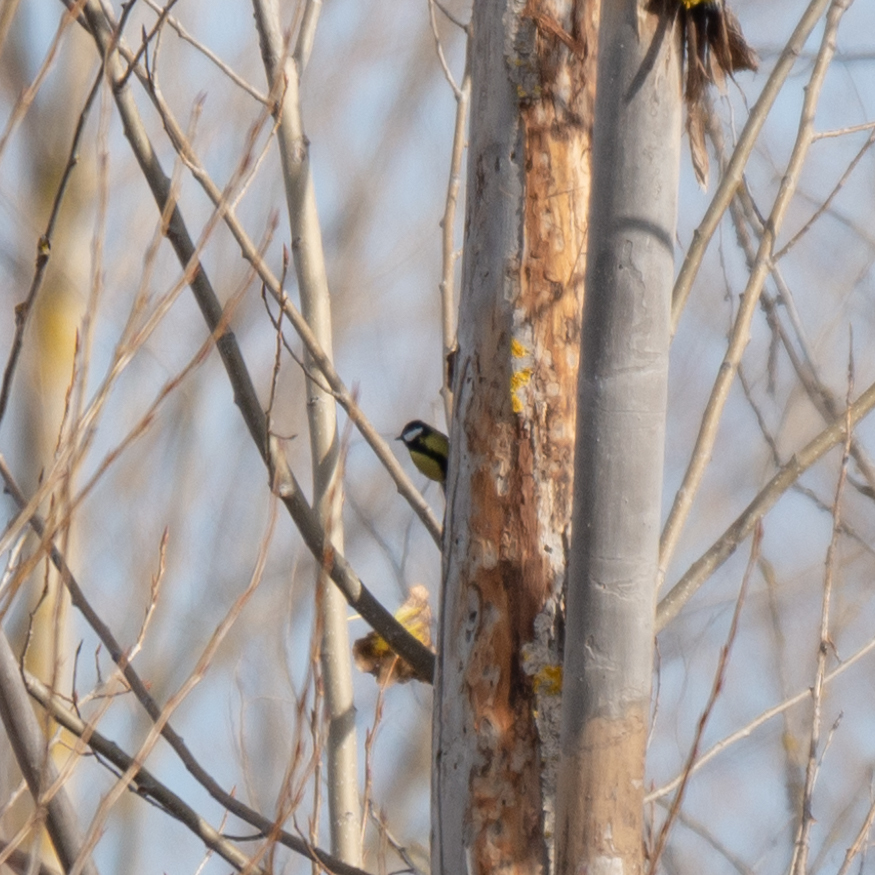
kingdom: Animalia
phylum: Chordata
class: Aves
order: Passeriformes
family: Paridae
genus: Parus
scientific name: Parus major
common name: Great tit
